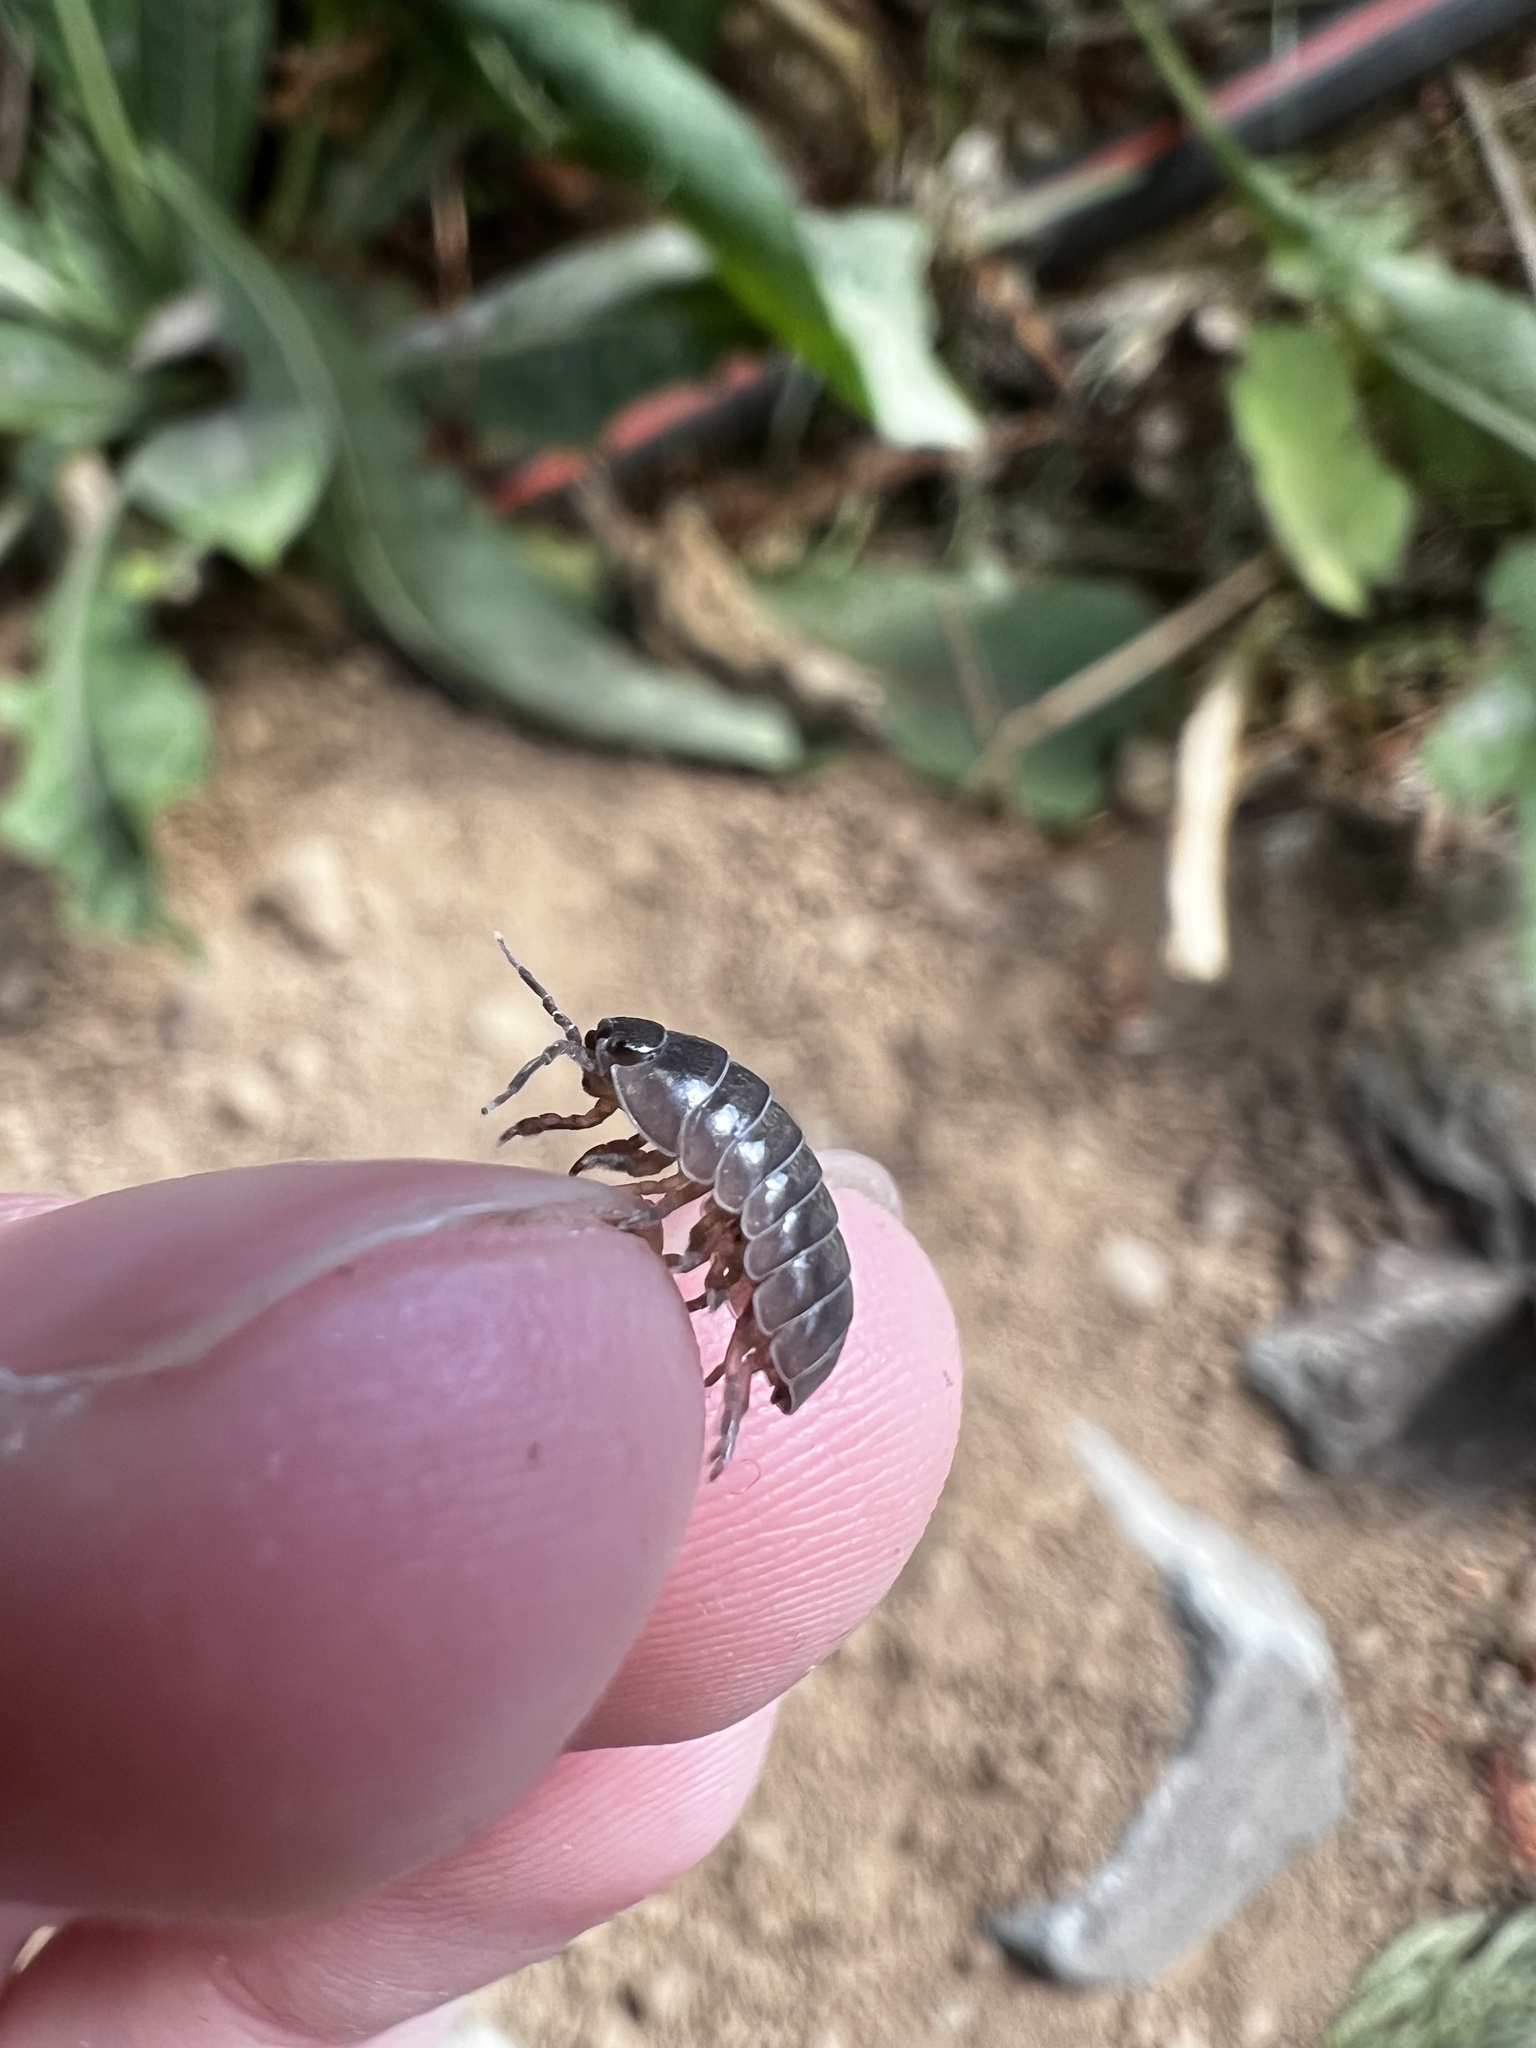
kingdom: Animalia
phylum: Arthropoda
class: Malacostraca
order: Isopoda
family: Armadillidiidae
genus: Armadillidium
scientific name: Armadillidium vulgare
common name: Common pill woodlouse
